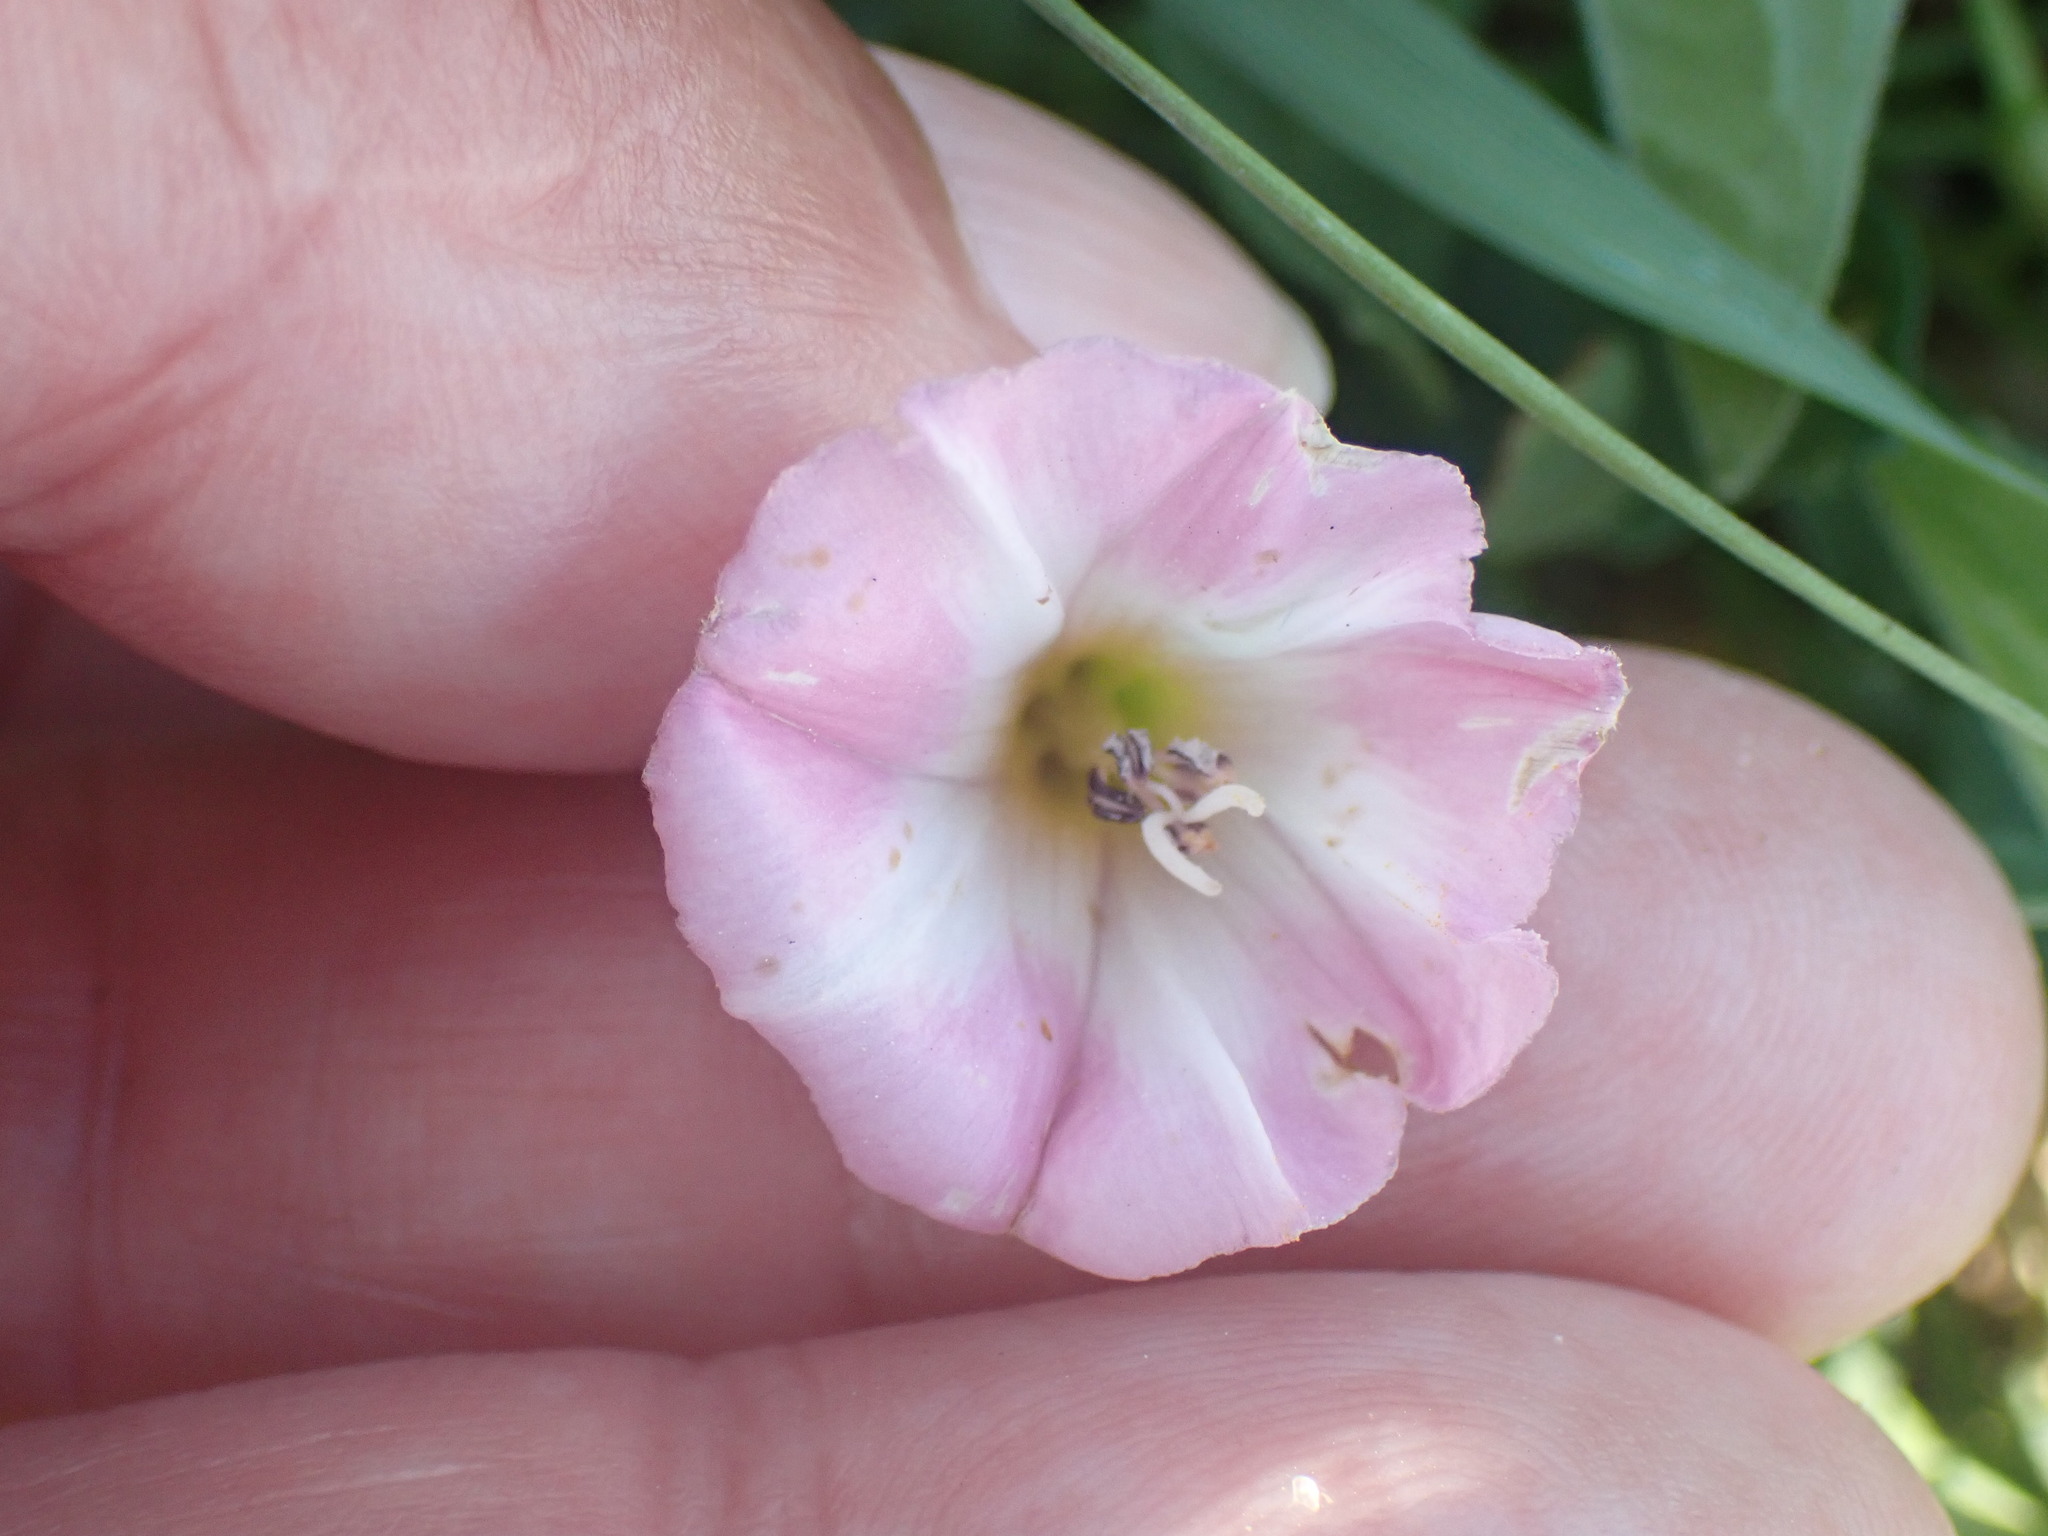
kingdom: Plantae
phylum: Tracheophyta
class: Magnoliopsida
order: Solanales
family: Convolvulaceae
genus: Convolvulus
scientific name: Convolvulus arvensis
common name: Field bindweed
